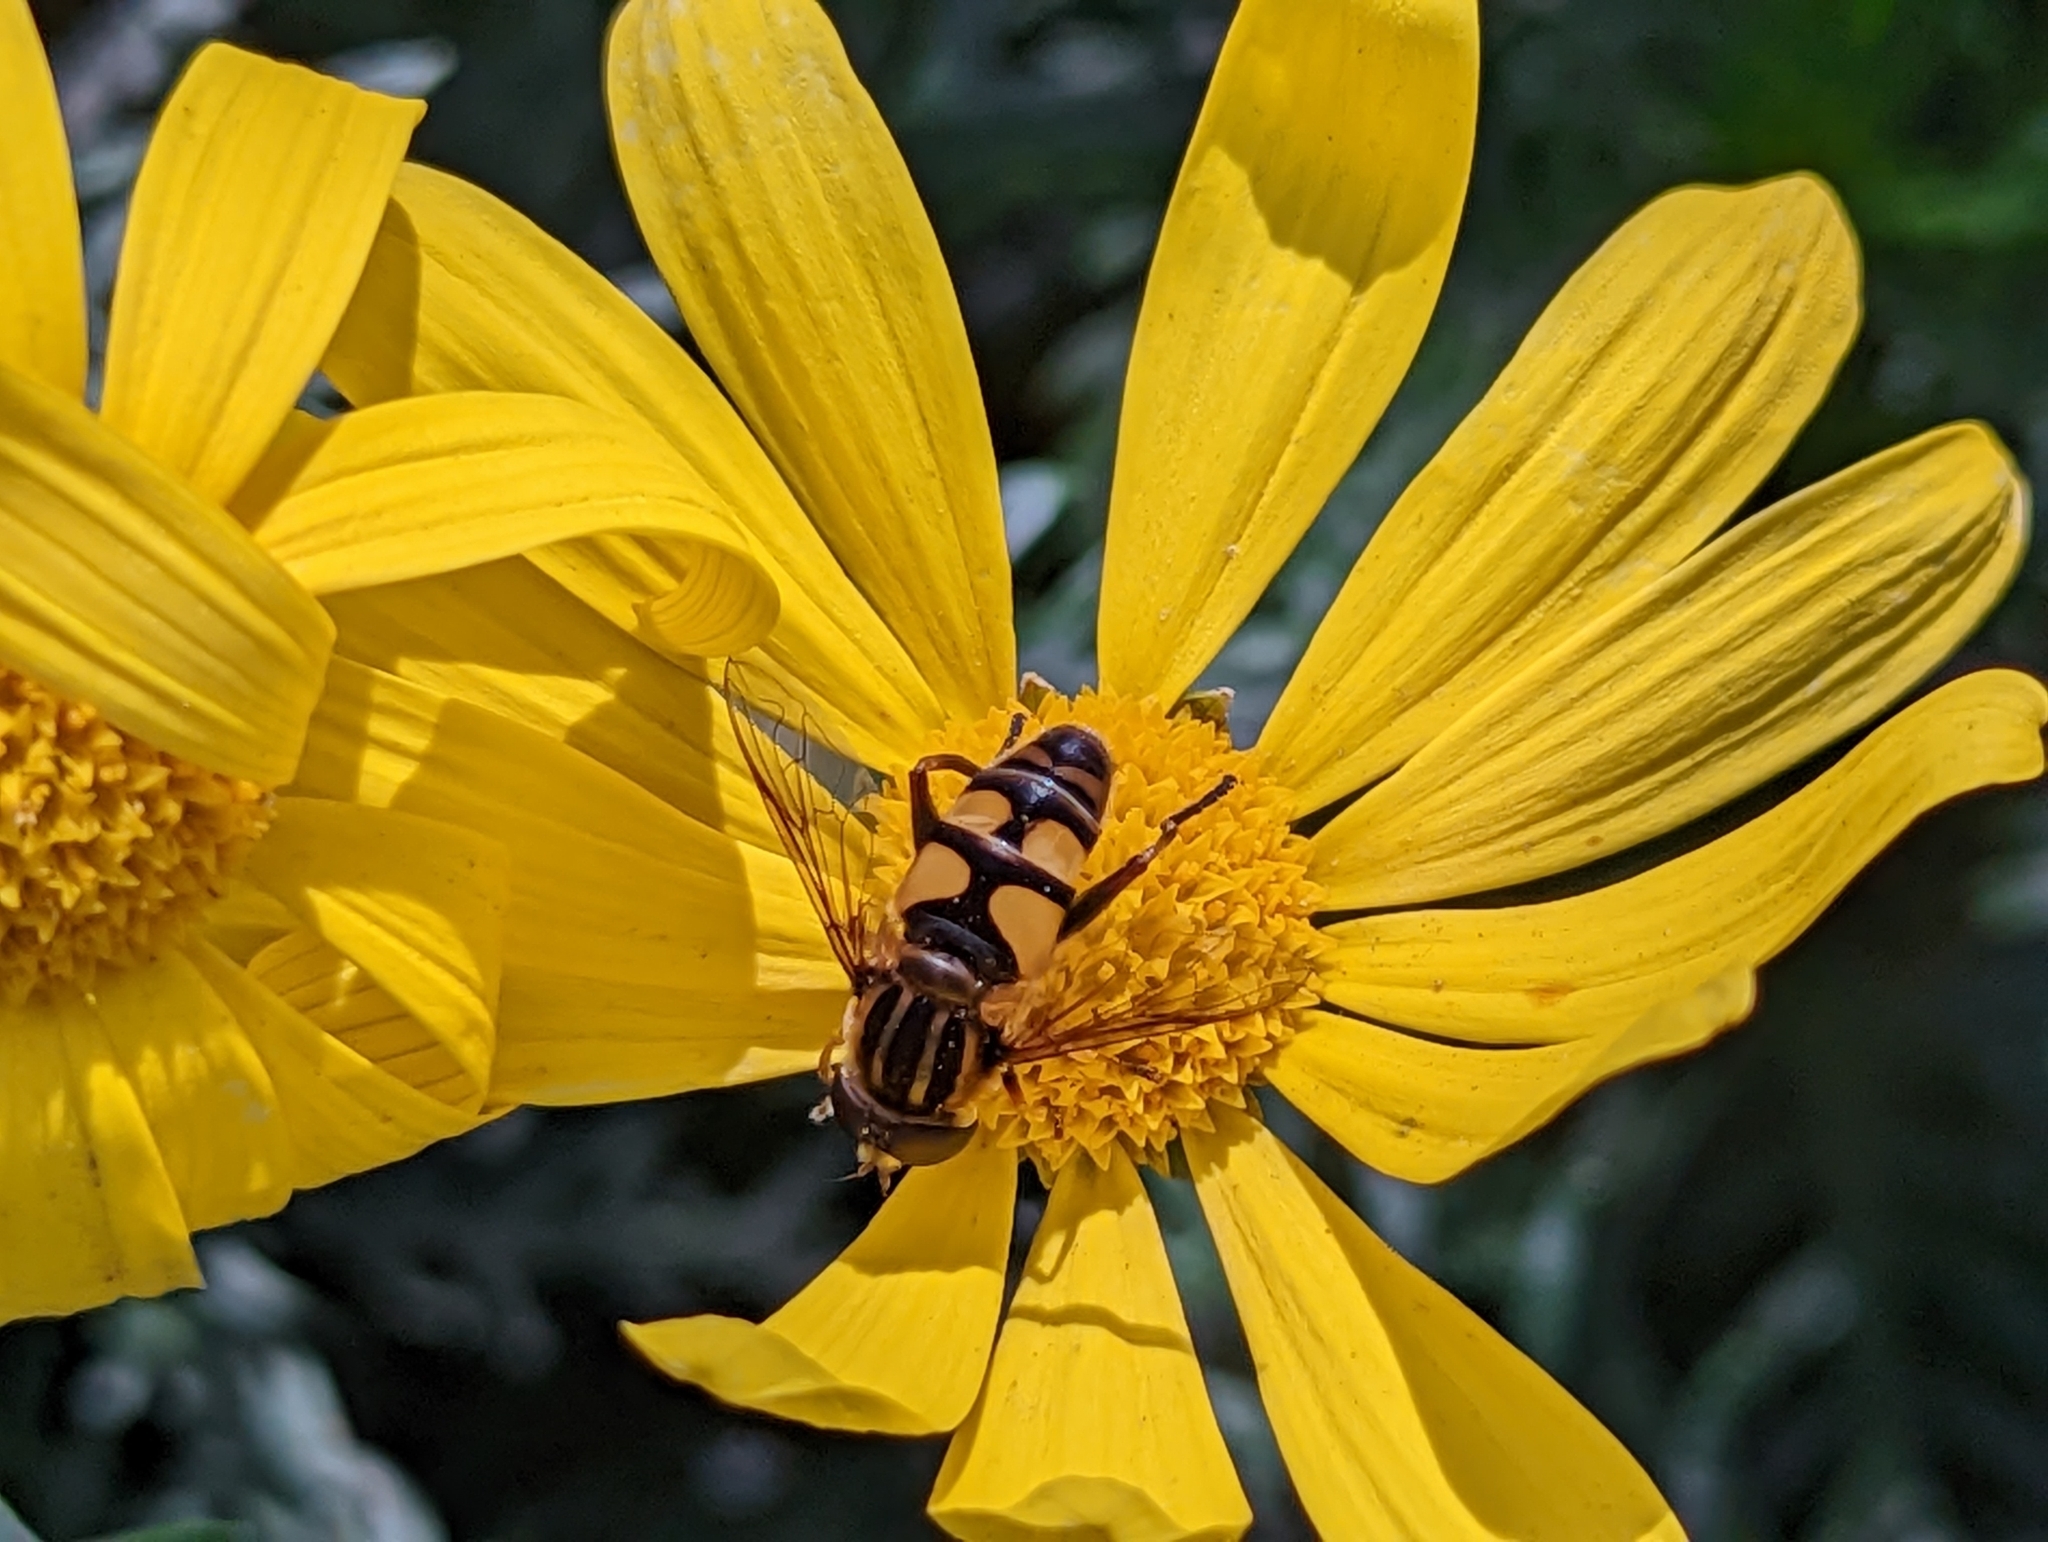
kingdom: Animalia
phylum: Arthropoda
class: Insecta
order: Diptera
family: Syrphidae
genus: Helophilus
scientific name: Helophilus fasciatus
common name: Narrow-headed marsh fly
